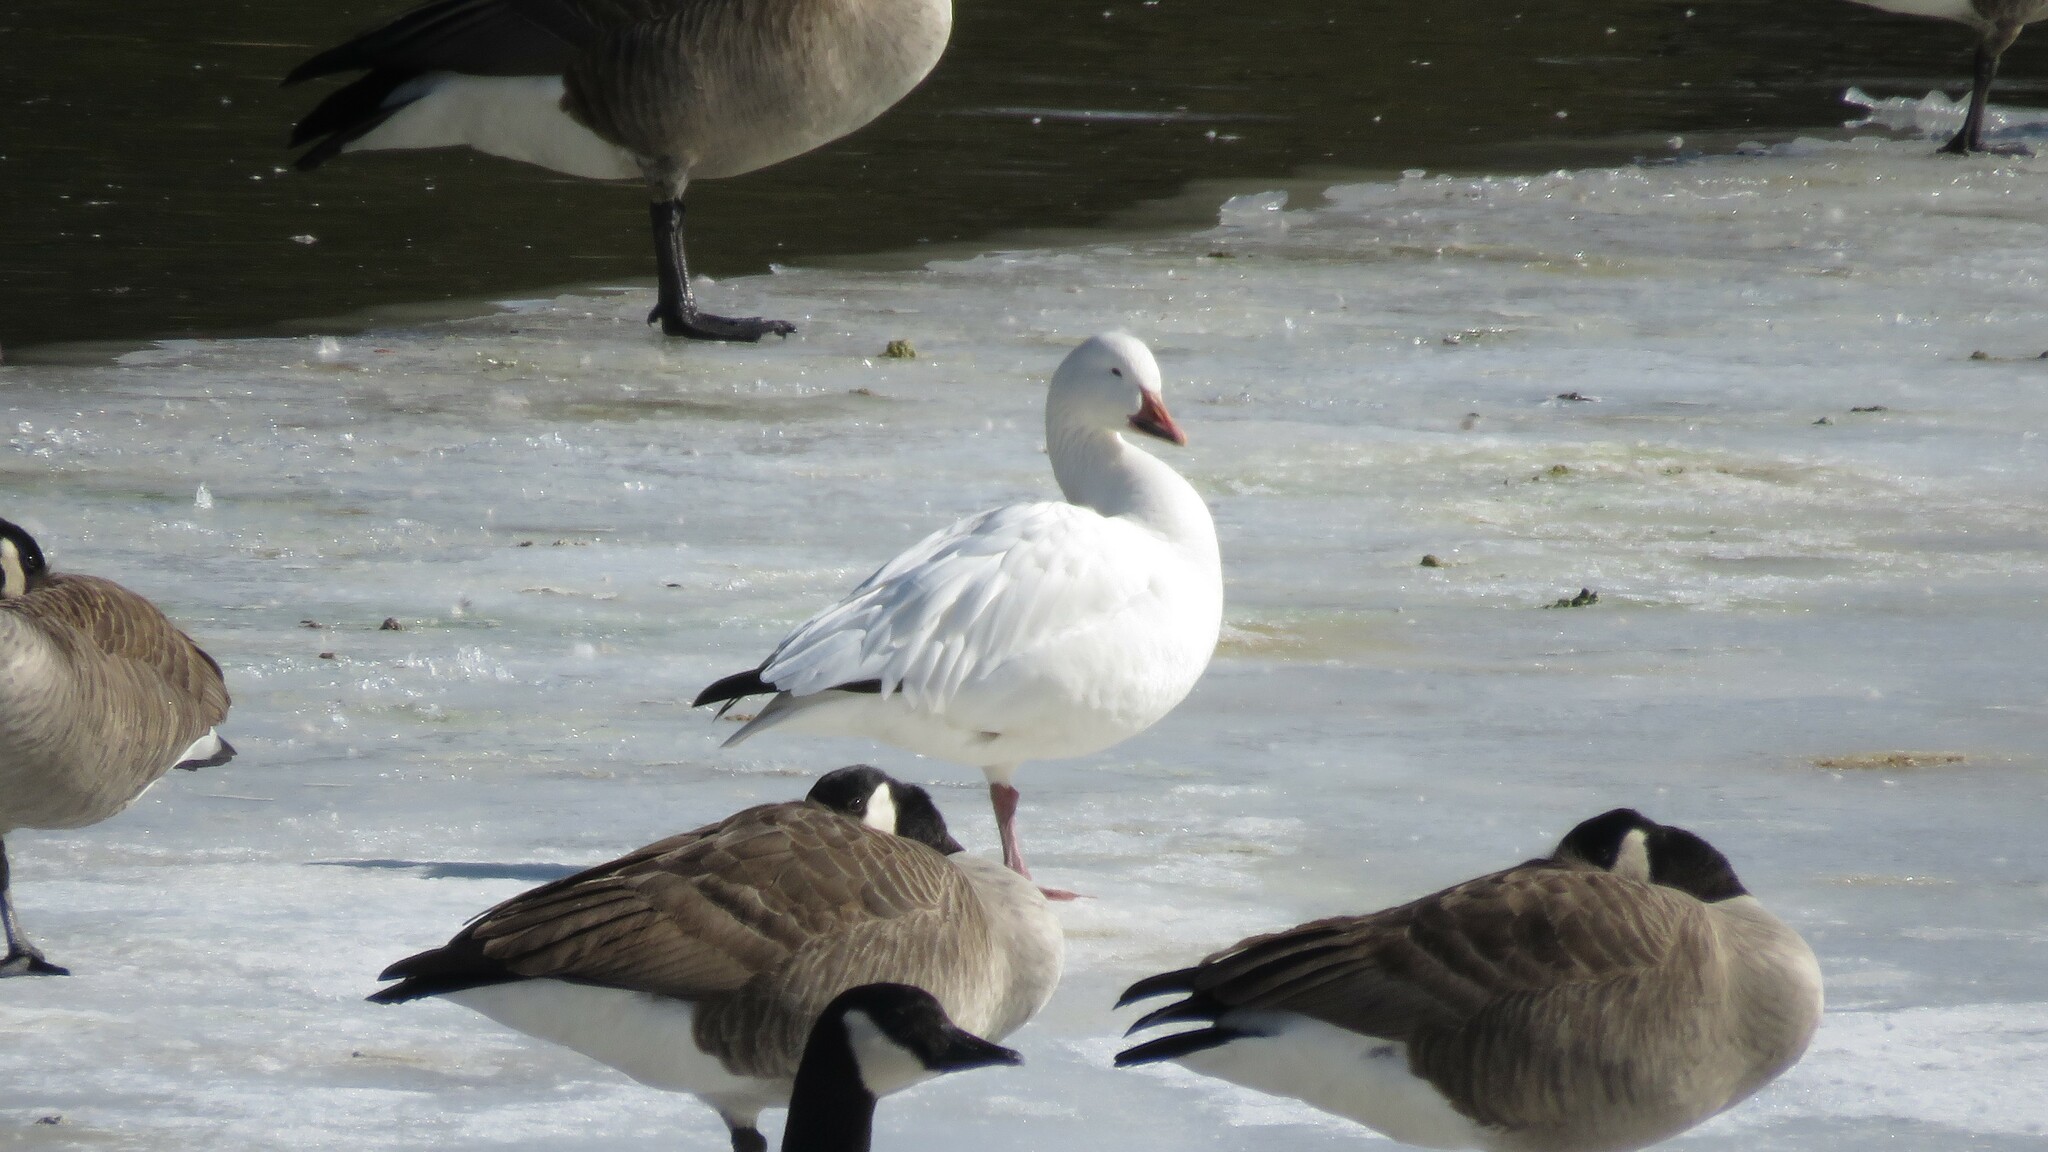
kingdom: Animalia
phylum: Chordata
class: Aves
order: Anseriformes
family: Anatidae
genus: Anser
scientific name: Anser caerulescens
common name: Snow goose
